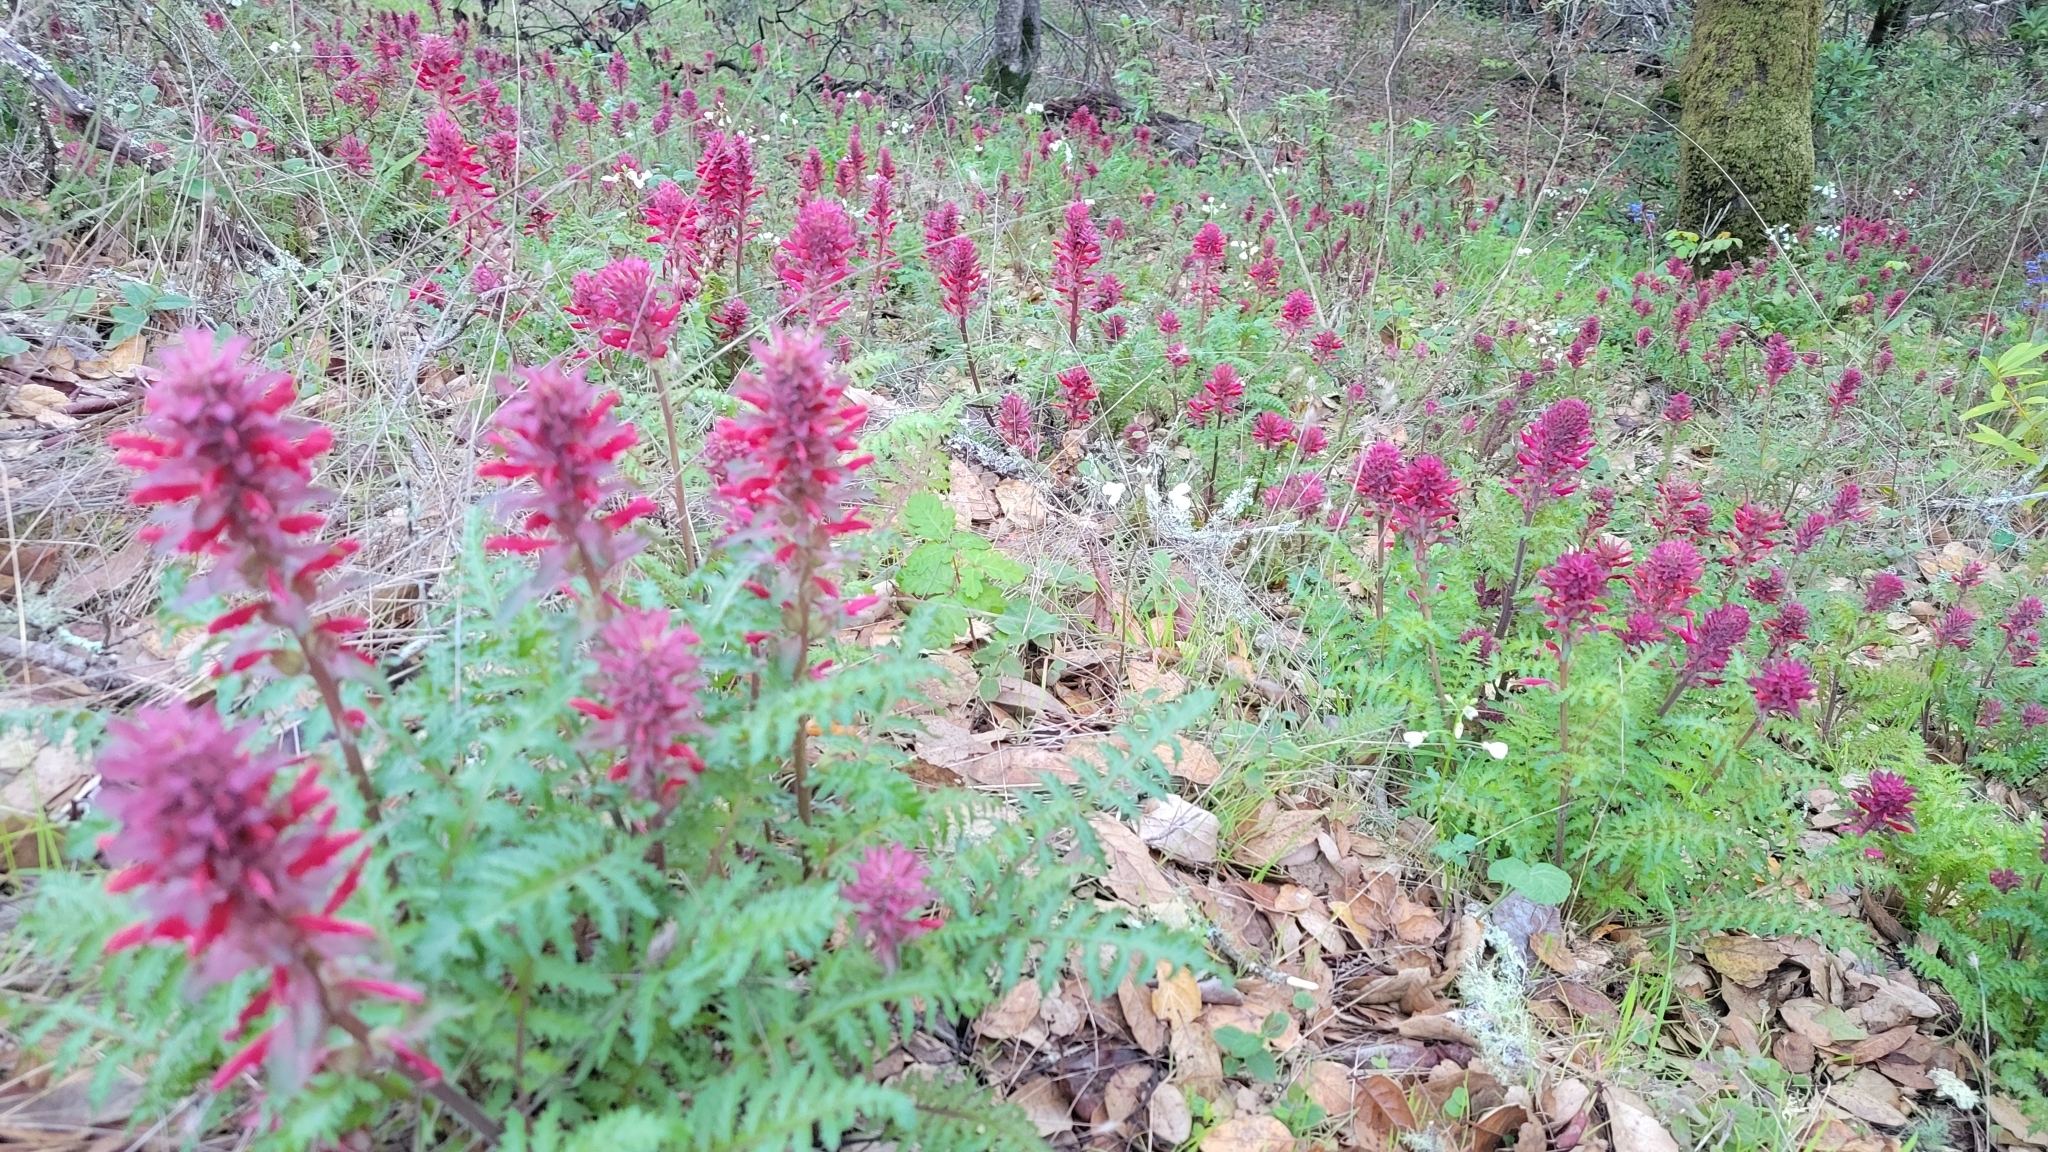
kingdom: Plantae
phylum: Tracheophyta
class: Magnoliopsida
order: Lamiales
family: Orobanchaceae
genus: Pedicularis
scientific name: Pedicularis densiflora
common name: Indian warrior
